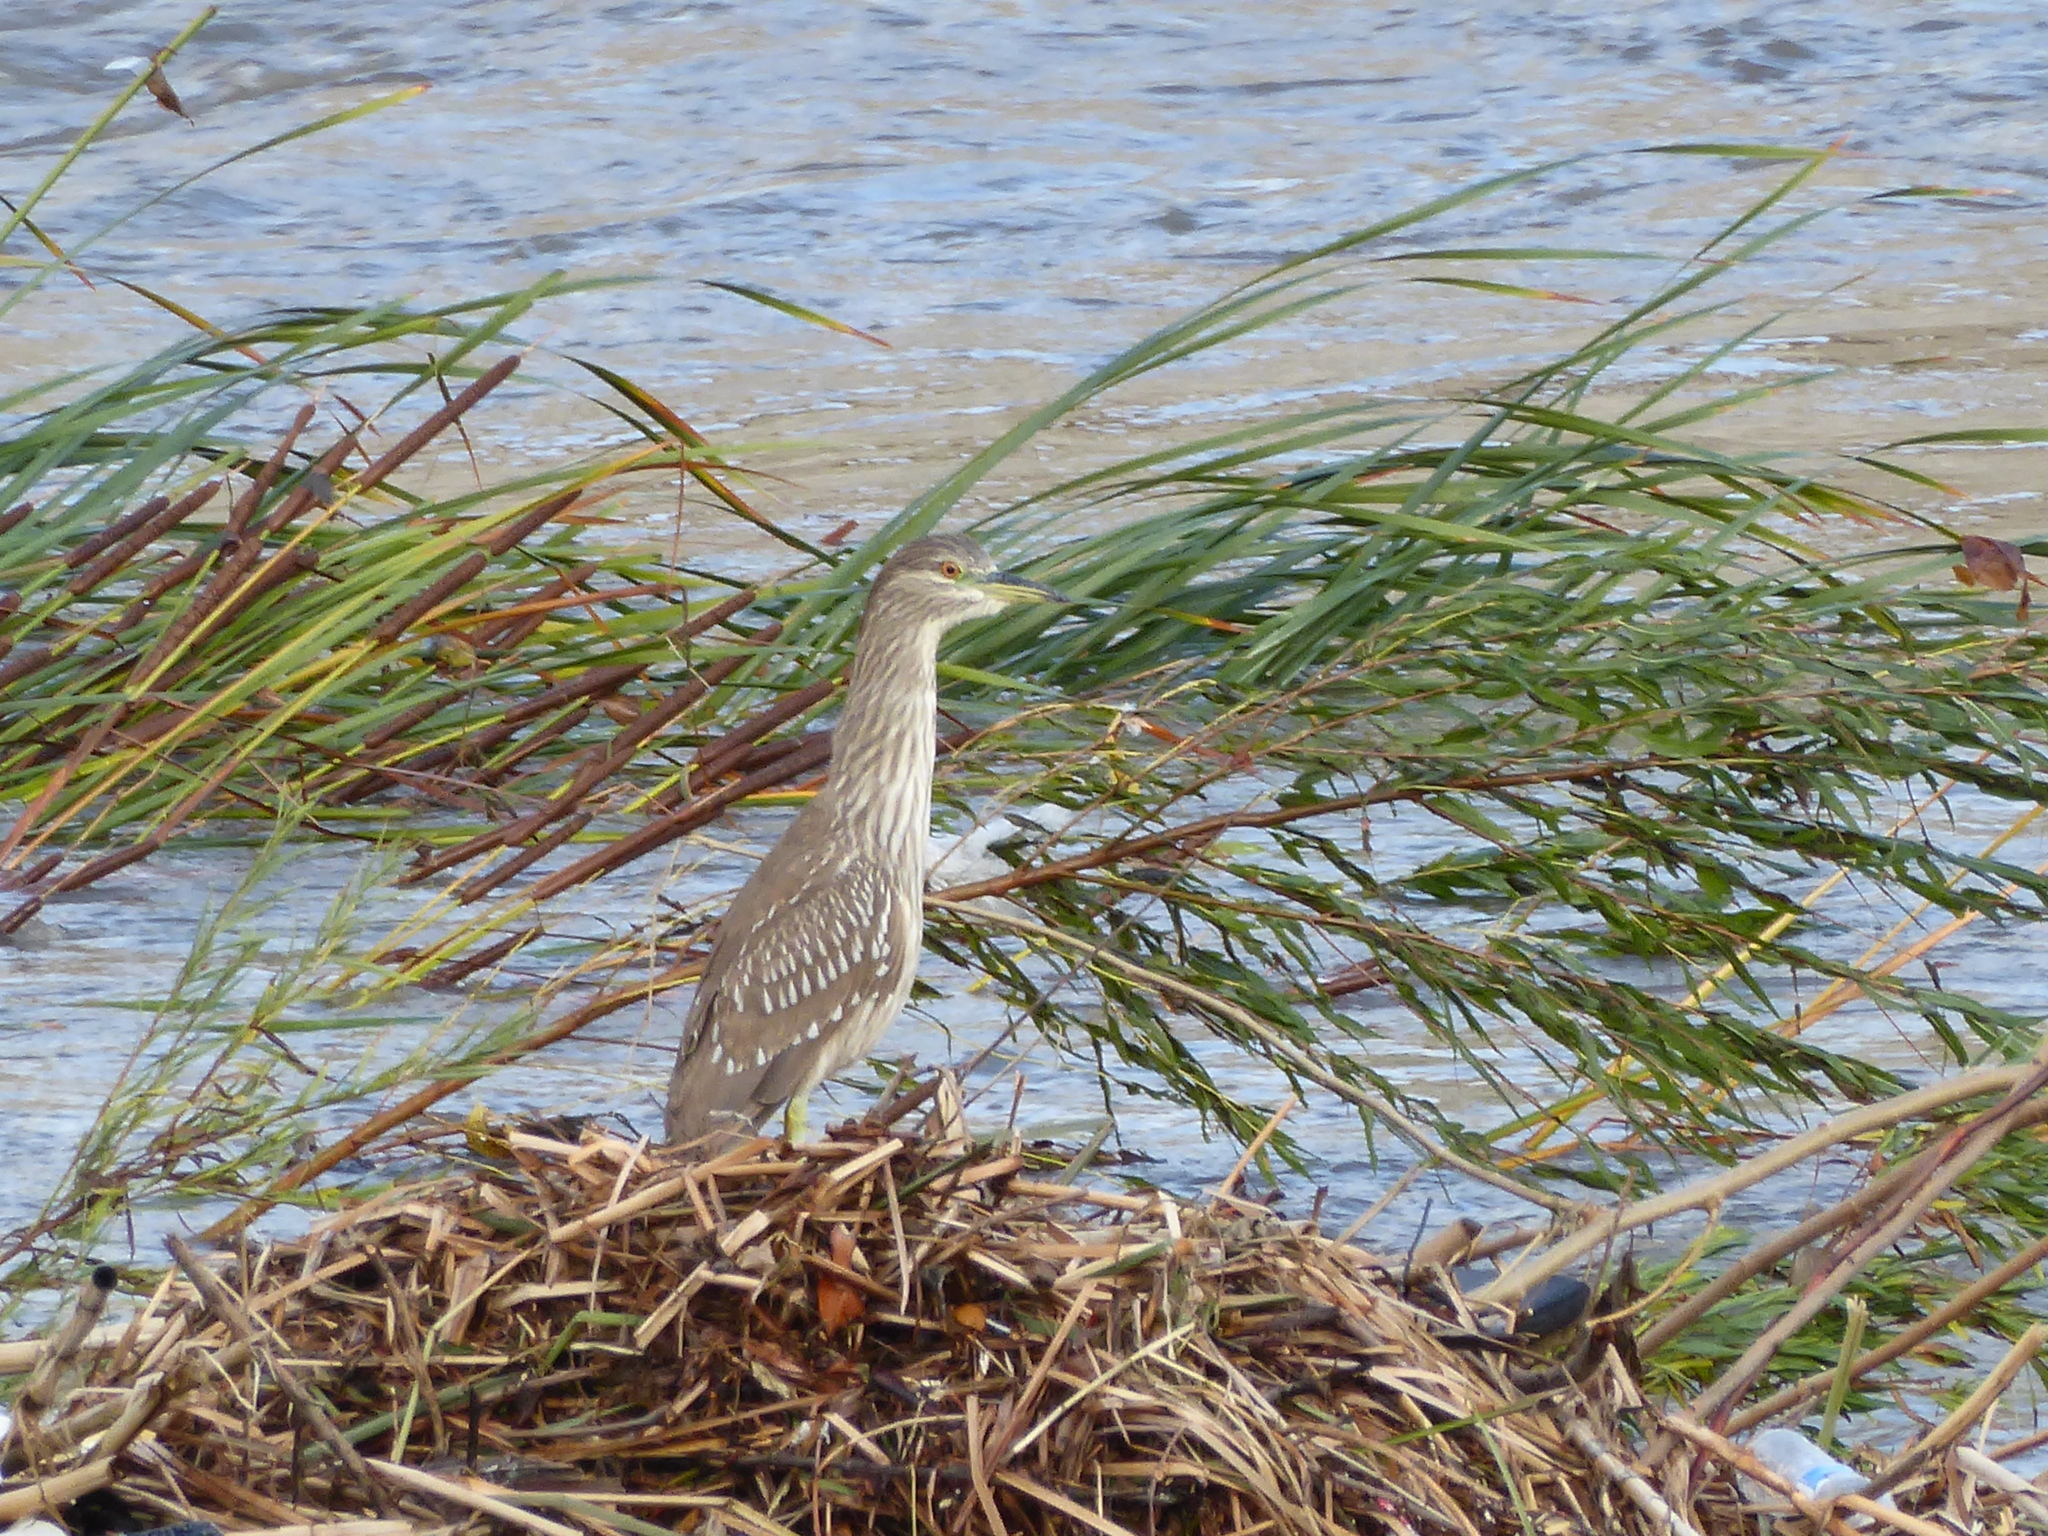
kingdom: Animalia
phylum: Chordata
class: Aves
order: Pelecaniformes
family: Ardeidae
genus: Nycticorax
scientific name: Nycticorax nycticorax
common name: Black-crowned night heron
